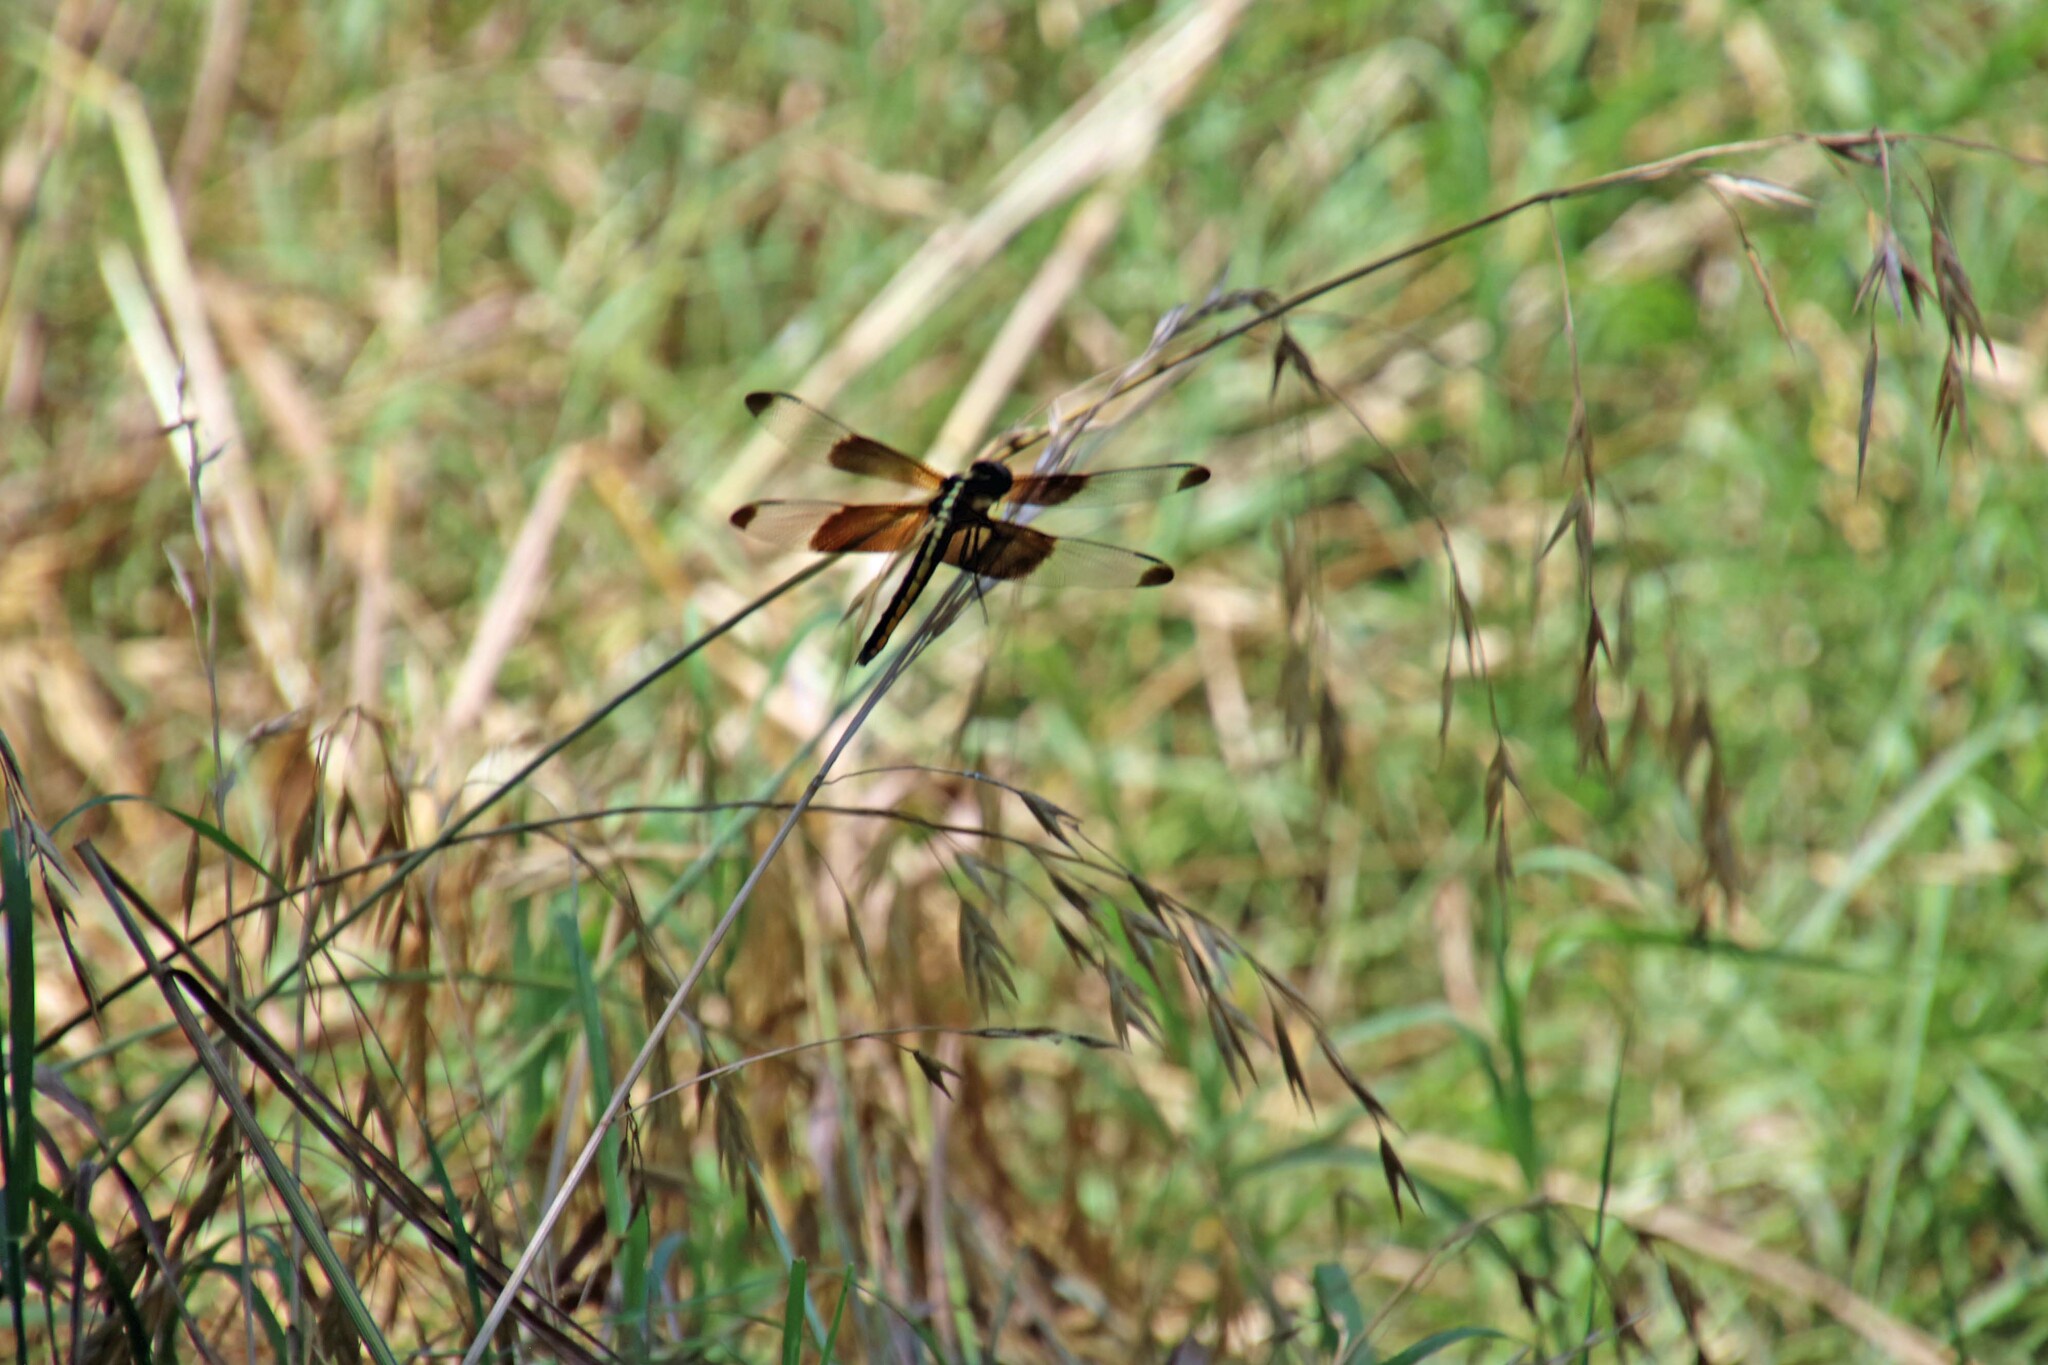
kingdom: Animalia
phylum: Arthropoda
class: Insecta
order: Odonata
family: Libellulidae
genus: Libellula
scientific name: Libellula luctuosa
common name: Widow skimmer
